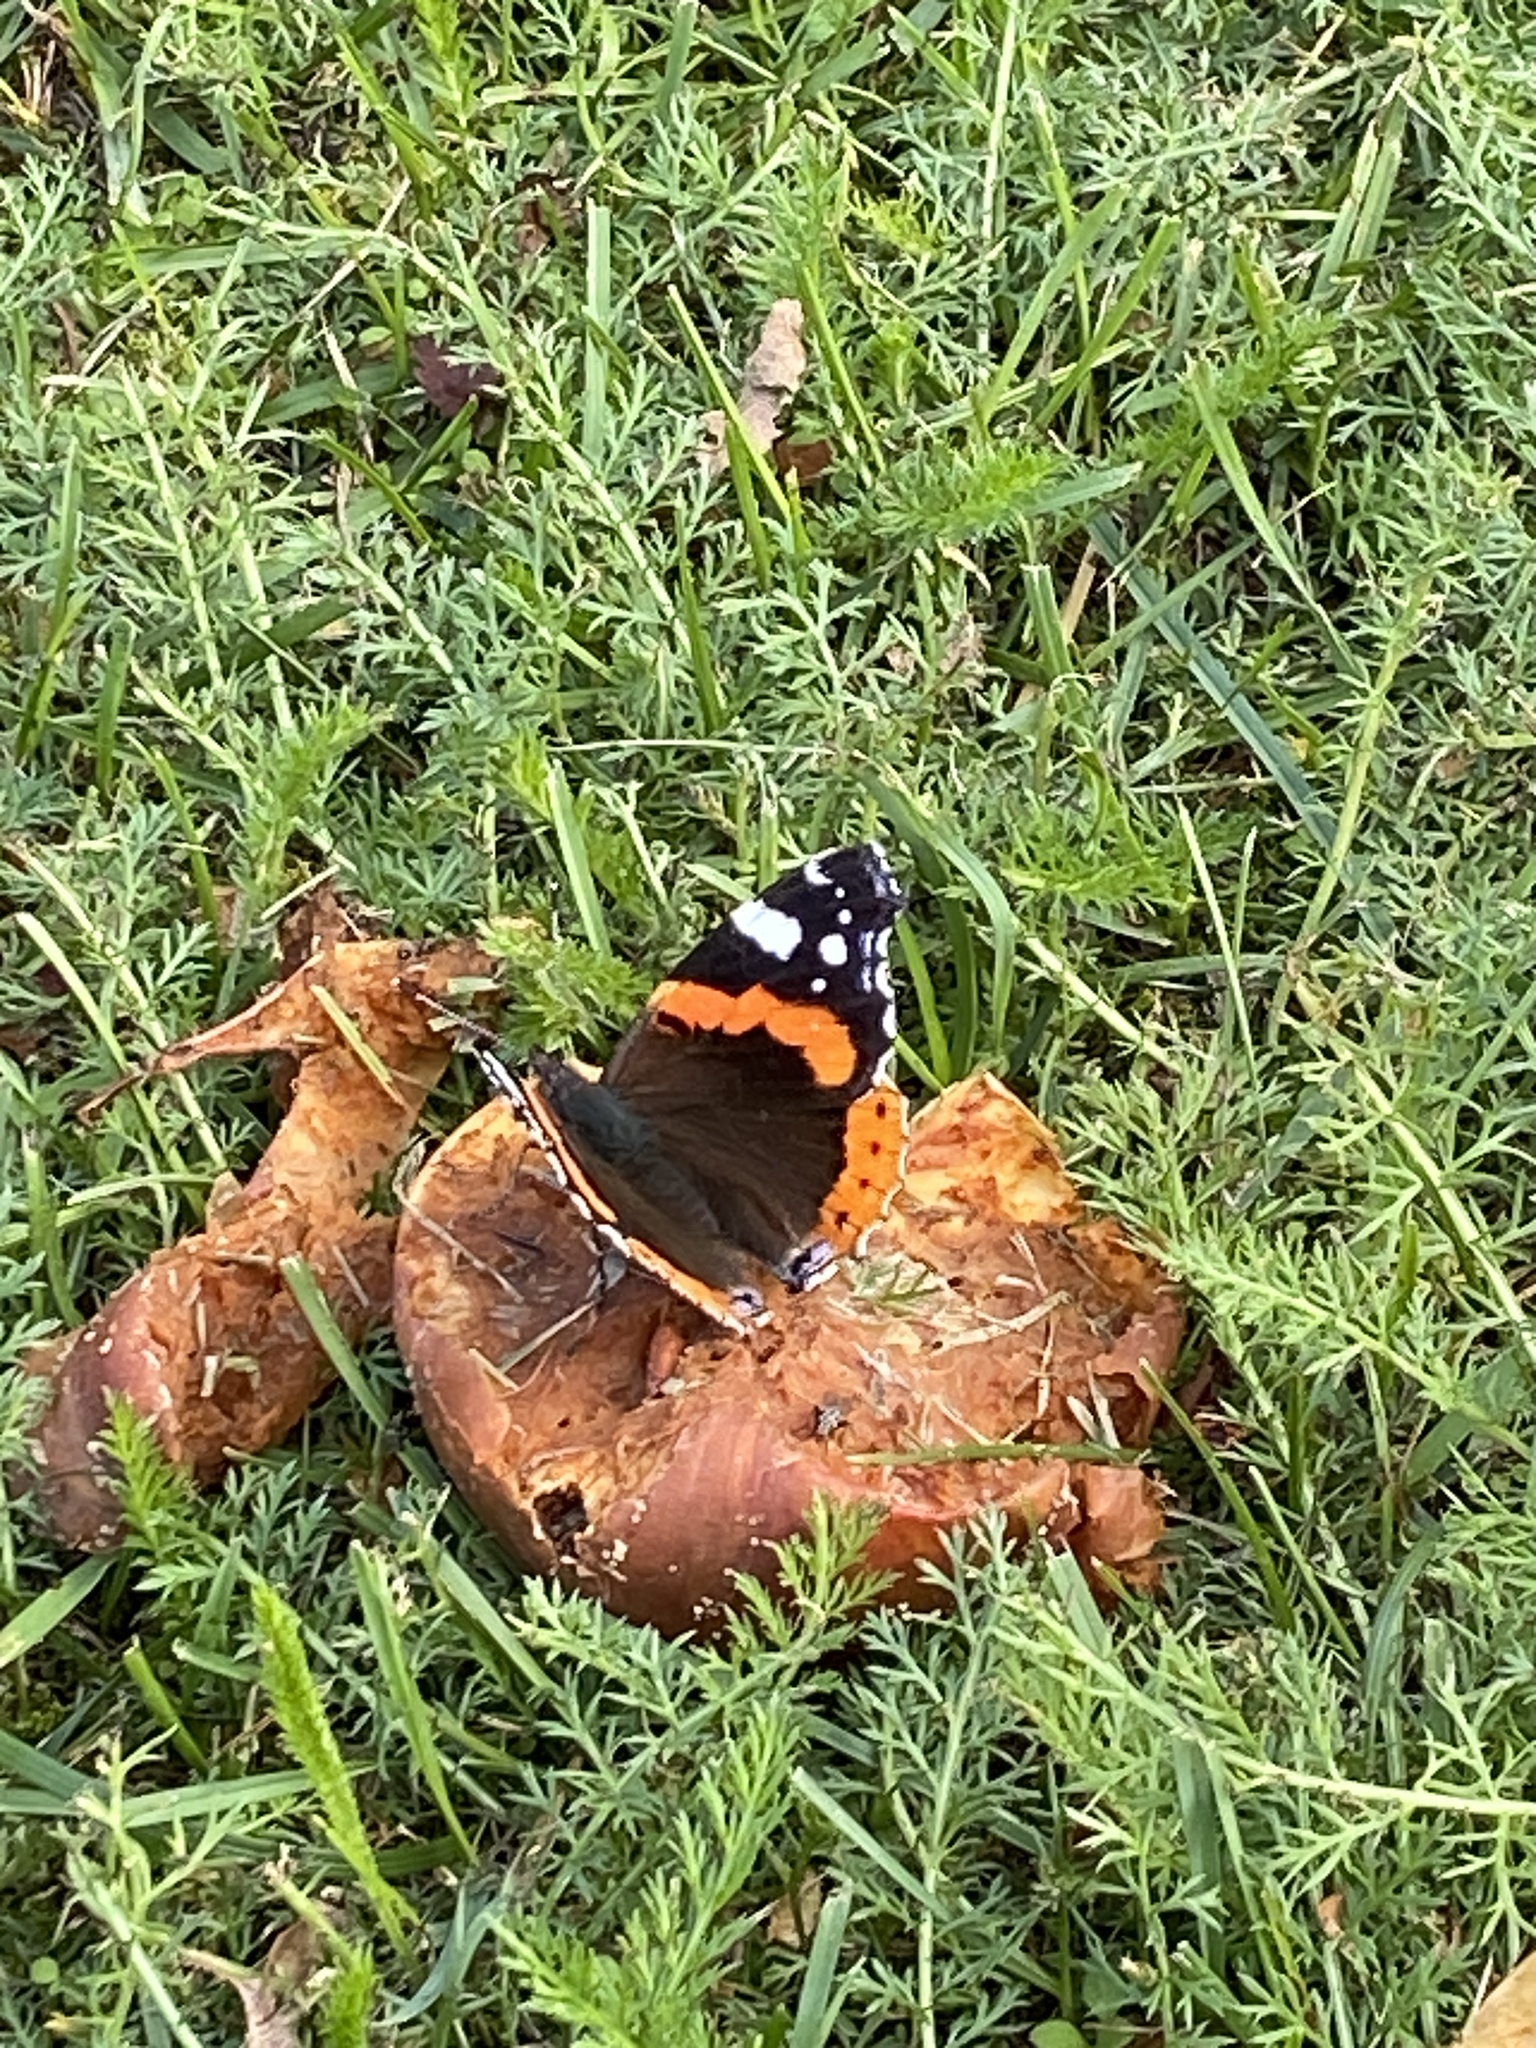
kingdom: Animalia
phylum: Arthropoda
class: Insecta
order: Lepidoptera
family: Nymphalidae
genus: Vanessa
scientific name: Vanessa atalanta
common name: Red admiral
